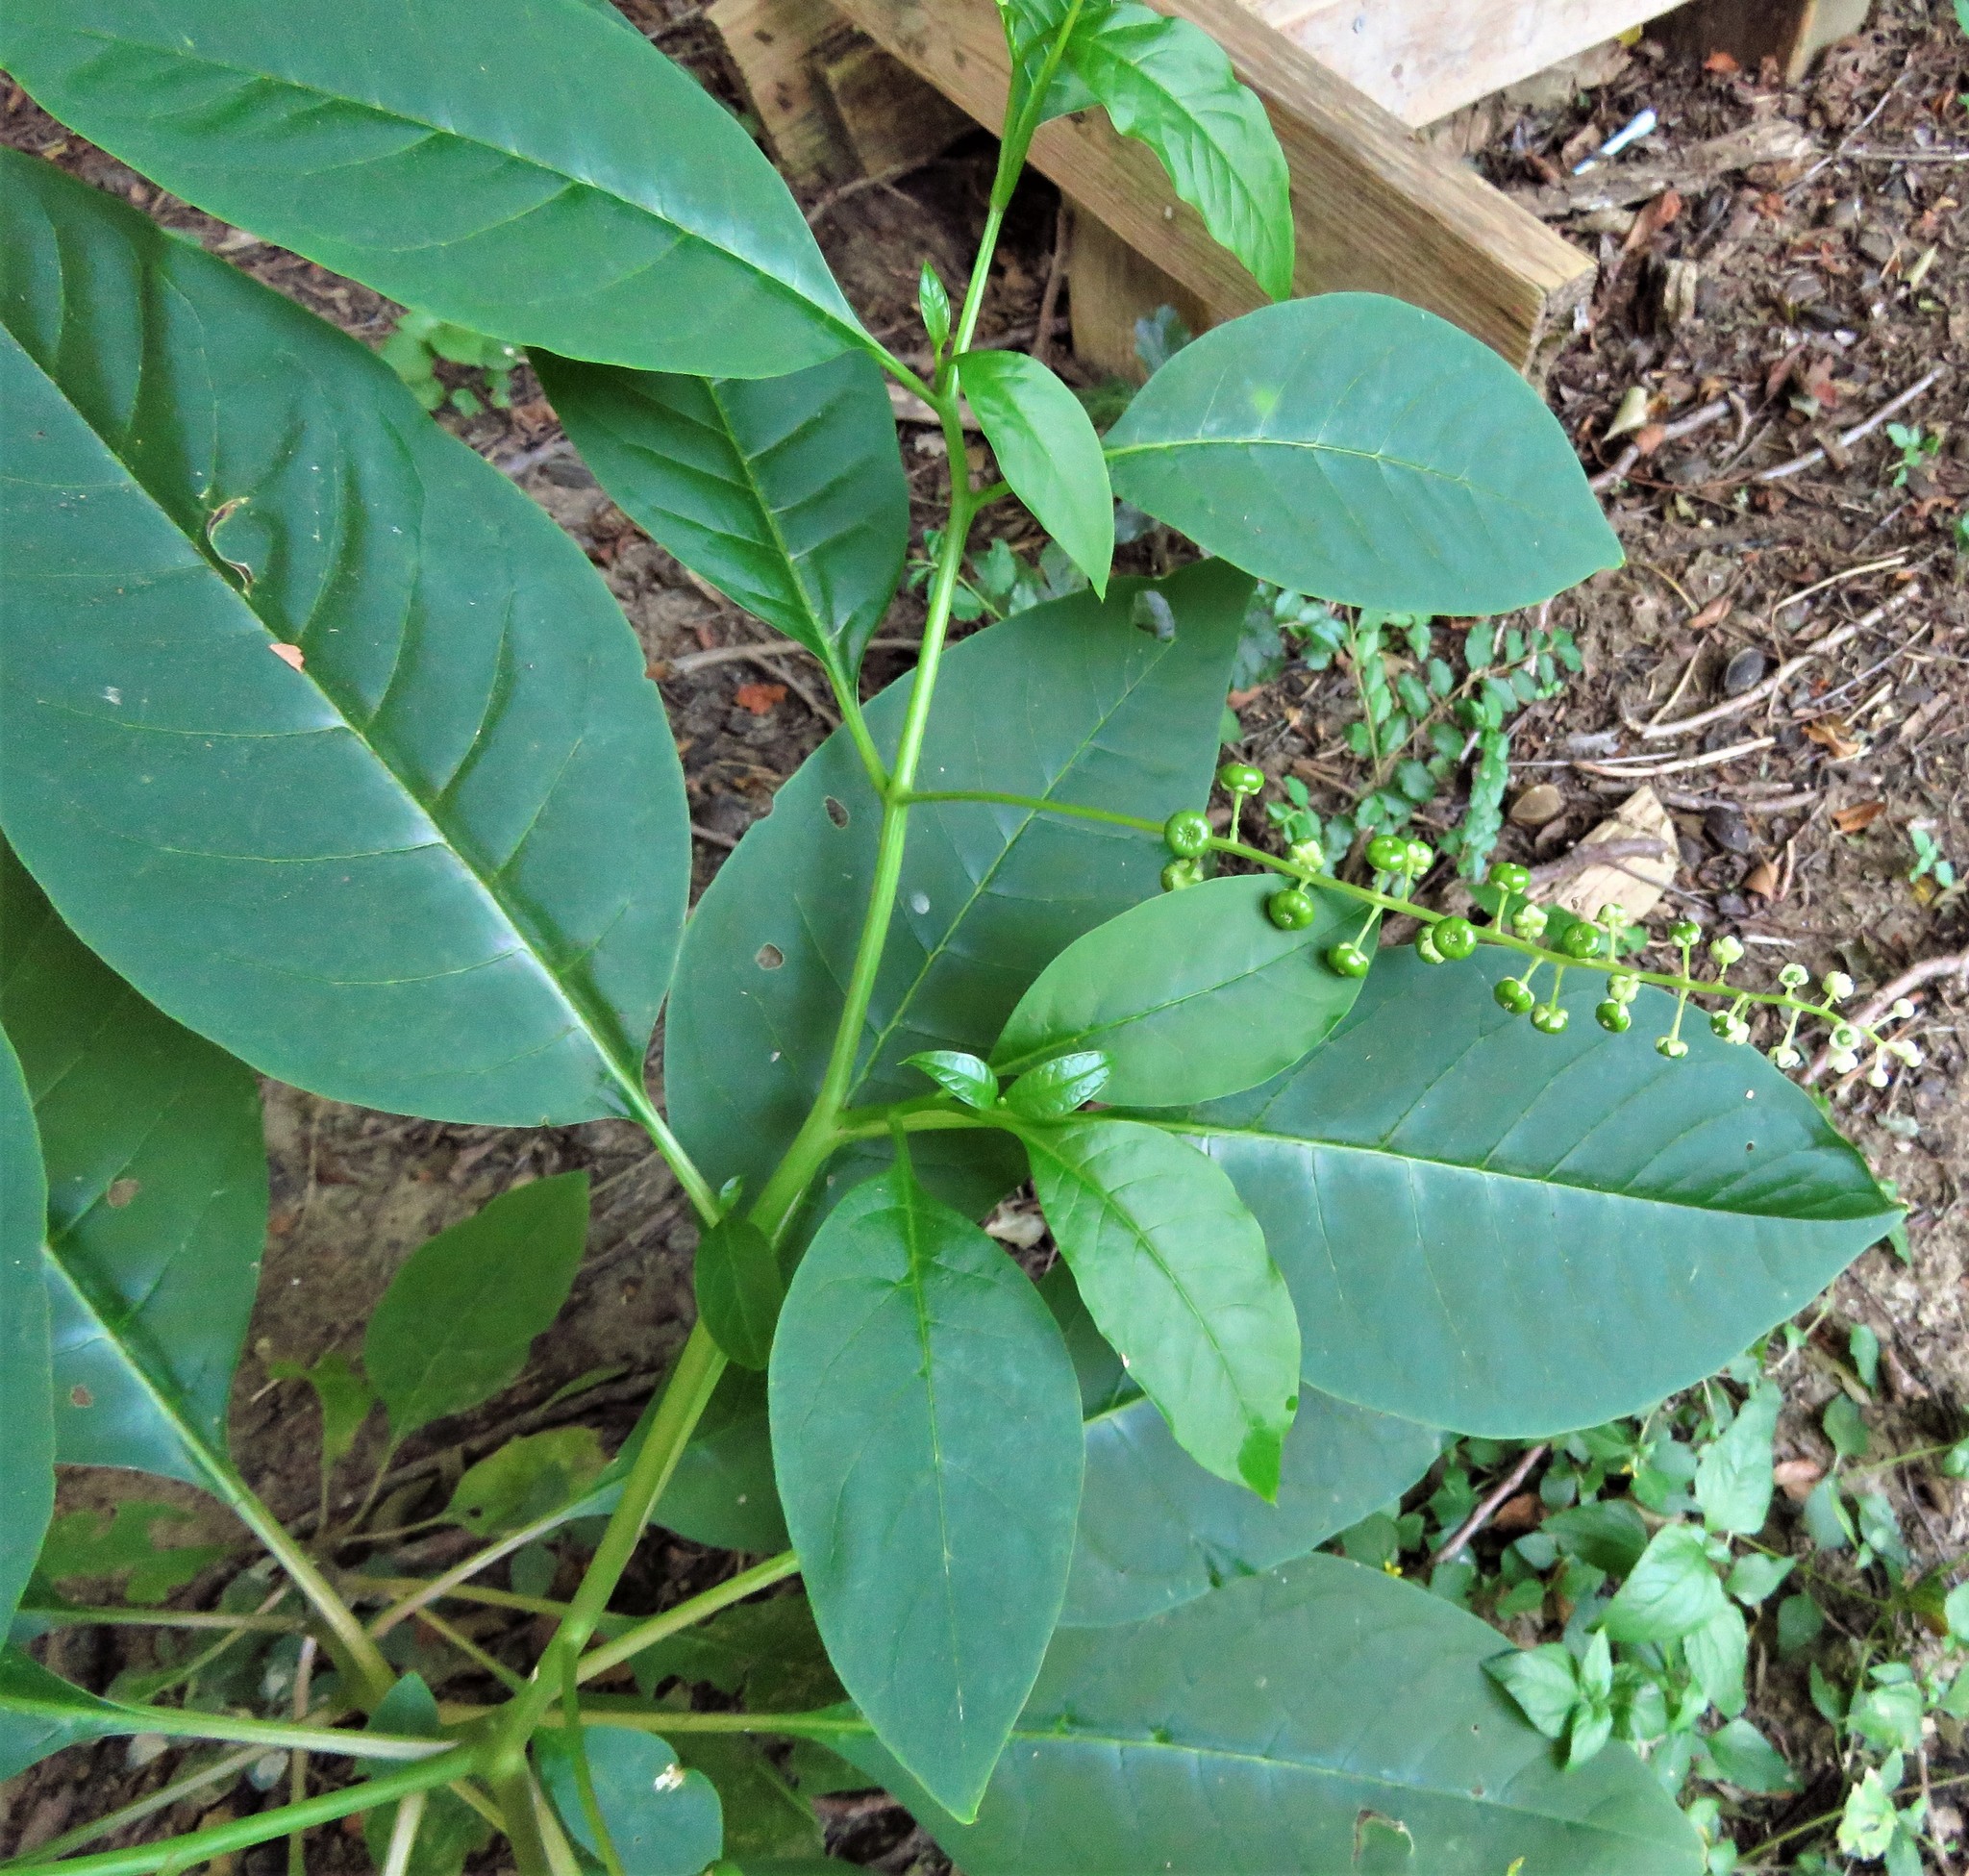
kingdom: Plantae
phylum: Tracheophyta
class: Magnoliopsida
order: Caryophyllales
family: Phytolaccaceae
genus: Phytolacca
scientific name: Phytolacca americana
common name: American pokeweed
